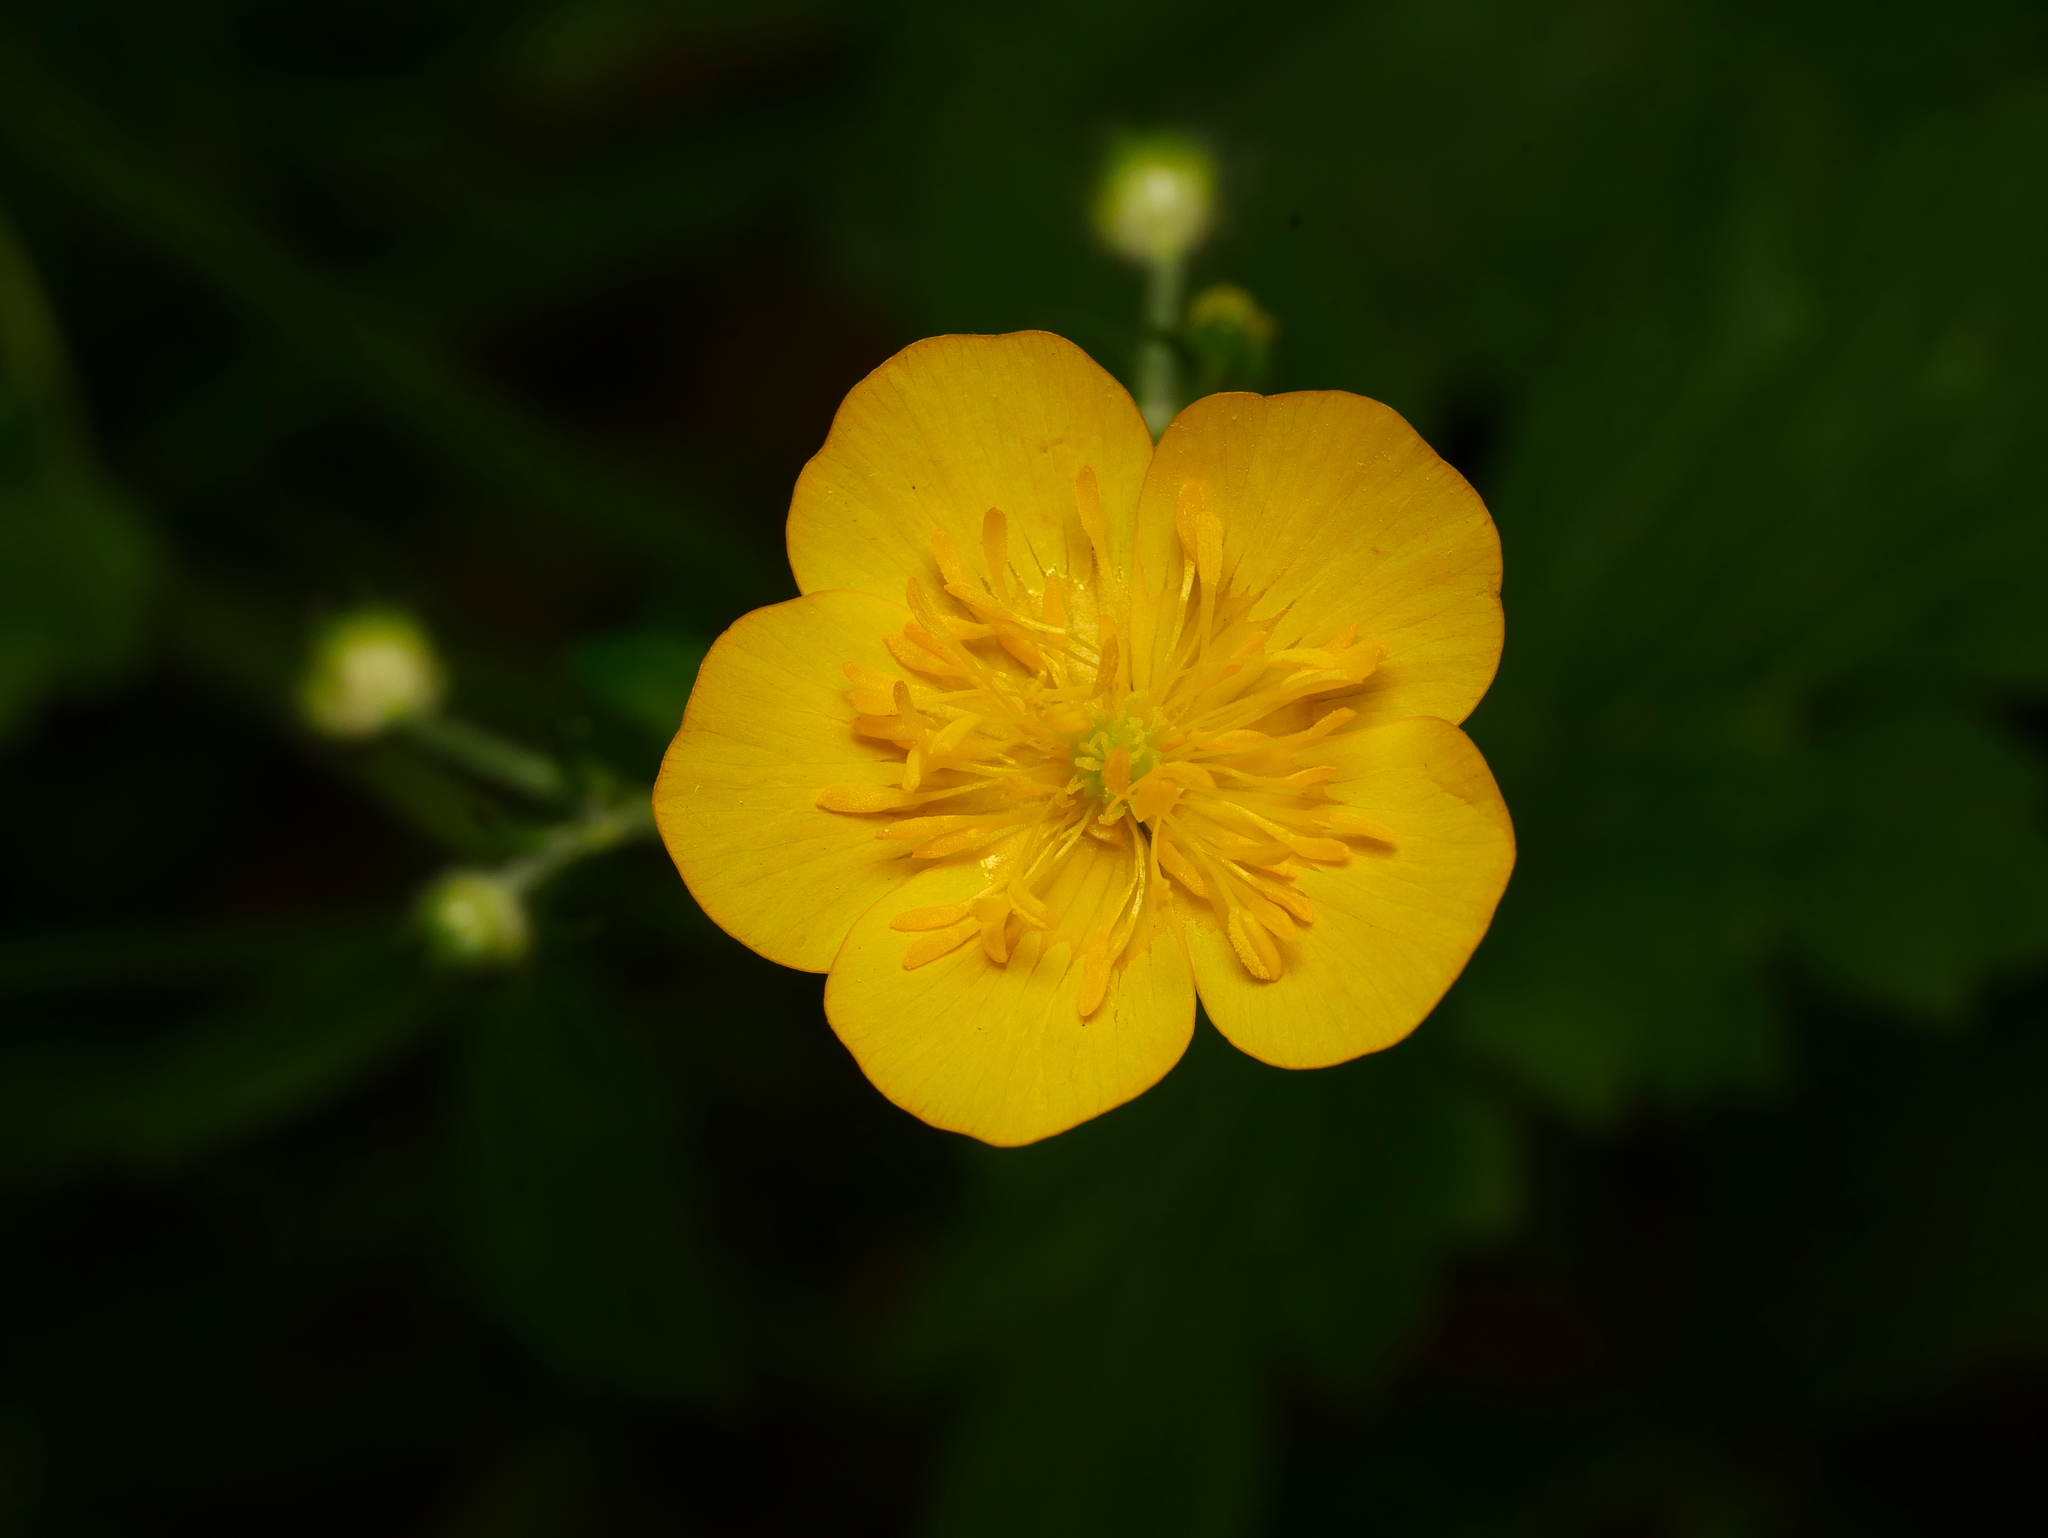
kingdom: Plantae
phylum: Tracheophyta
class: Magnoliopsida
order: Ranunculales
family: Ranunculaceae
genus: Ranunculus
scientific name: Ranunculus repens
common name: Creeping buttercup
